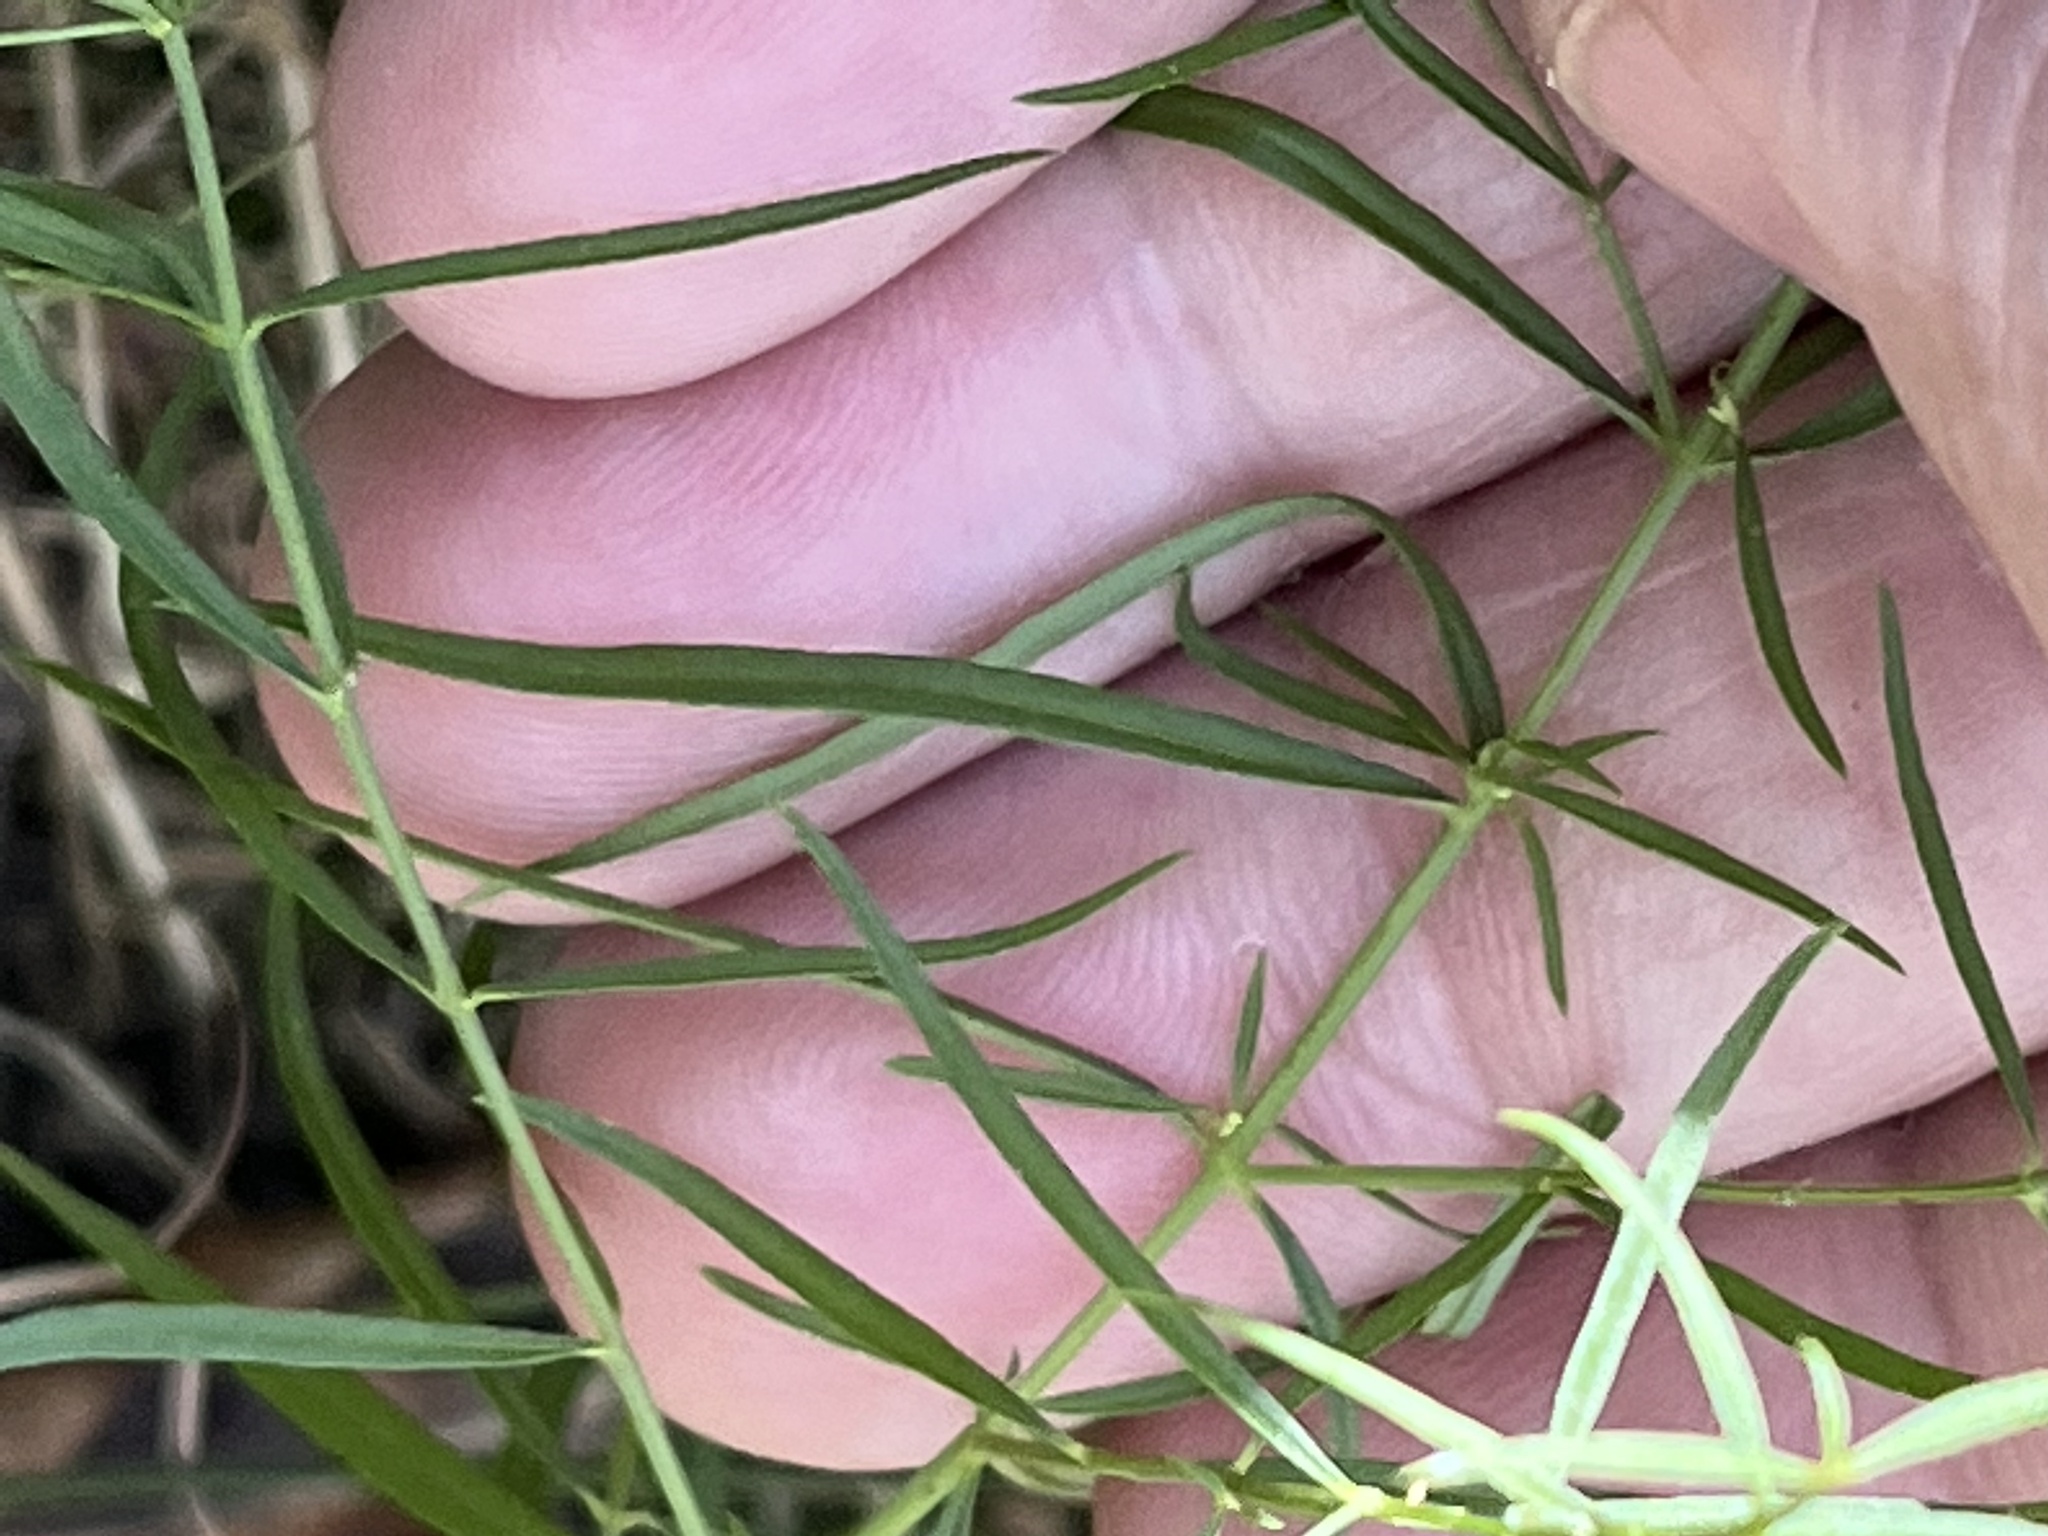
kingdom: Plantae
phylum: Tracheophyta
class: Magnoliopsida
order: Lamiales
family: Orobanchaceae
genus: Agalinis
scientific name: Agalinis tenuifolia
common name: Slender agalinis
